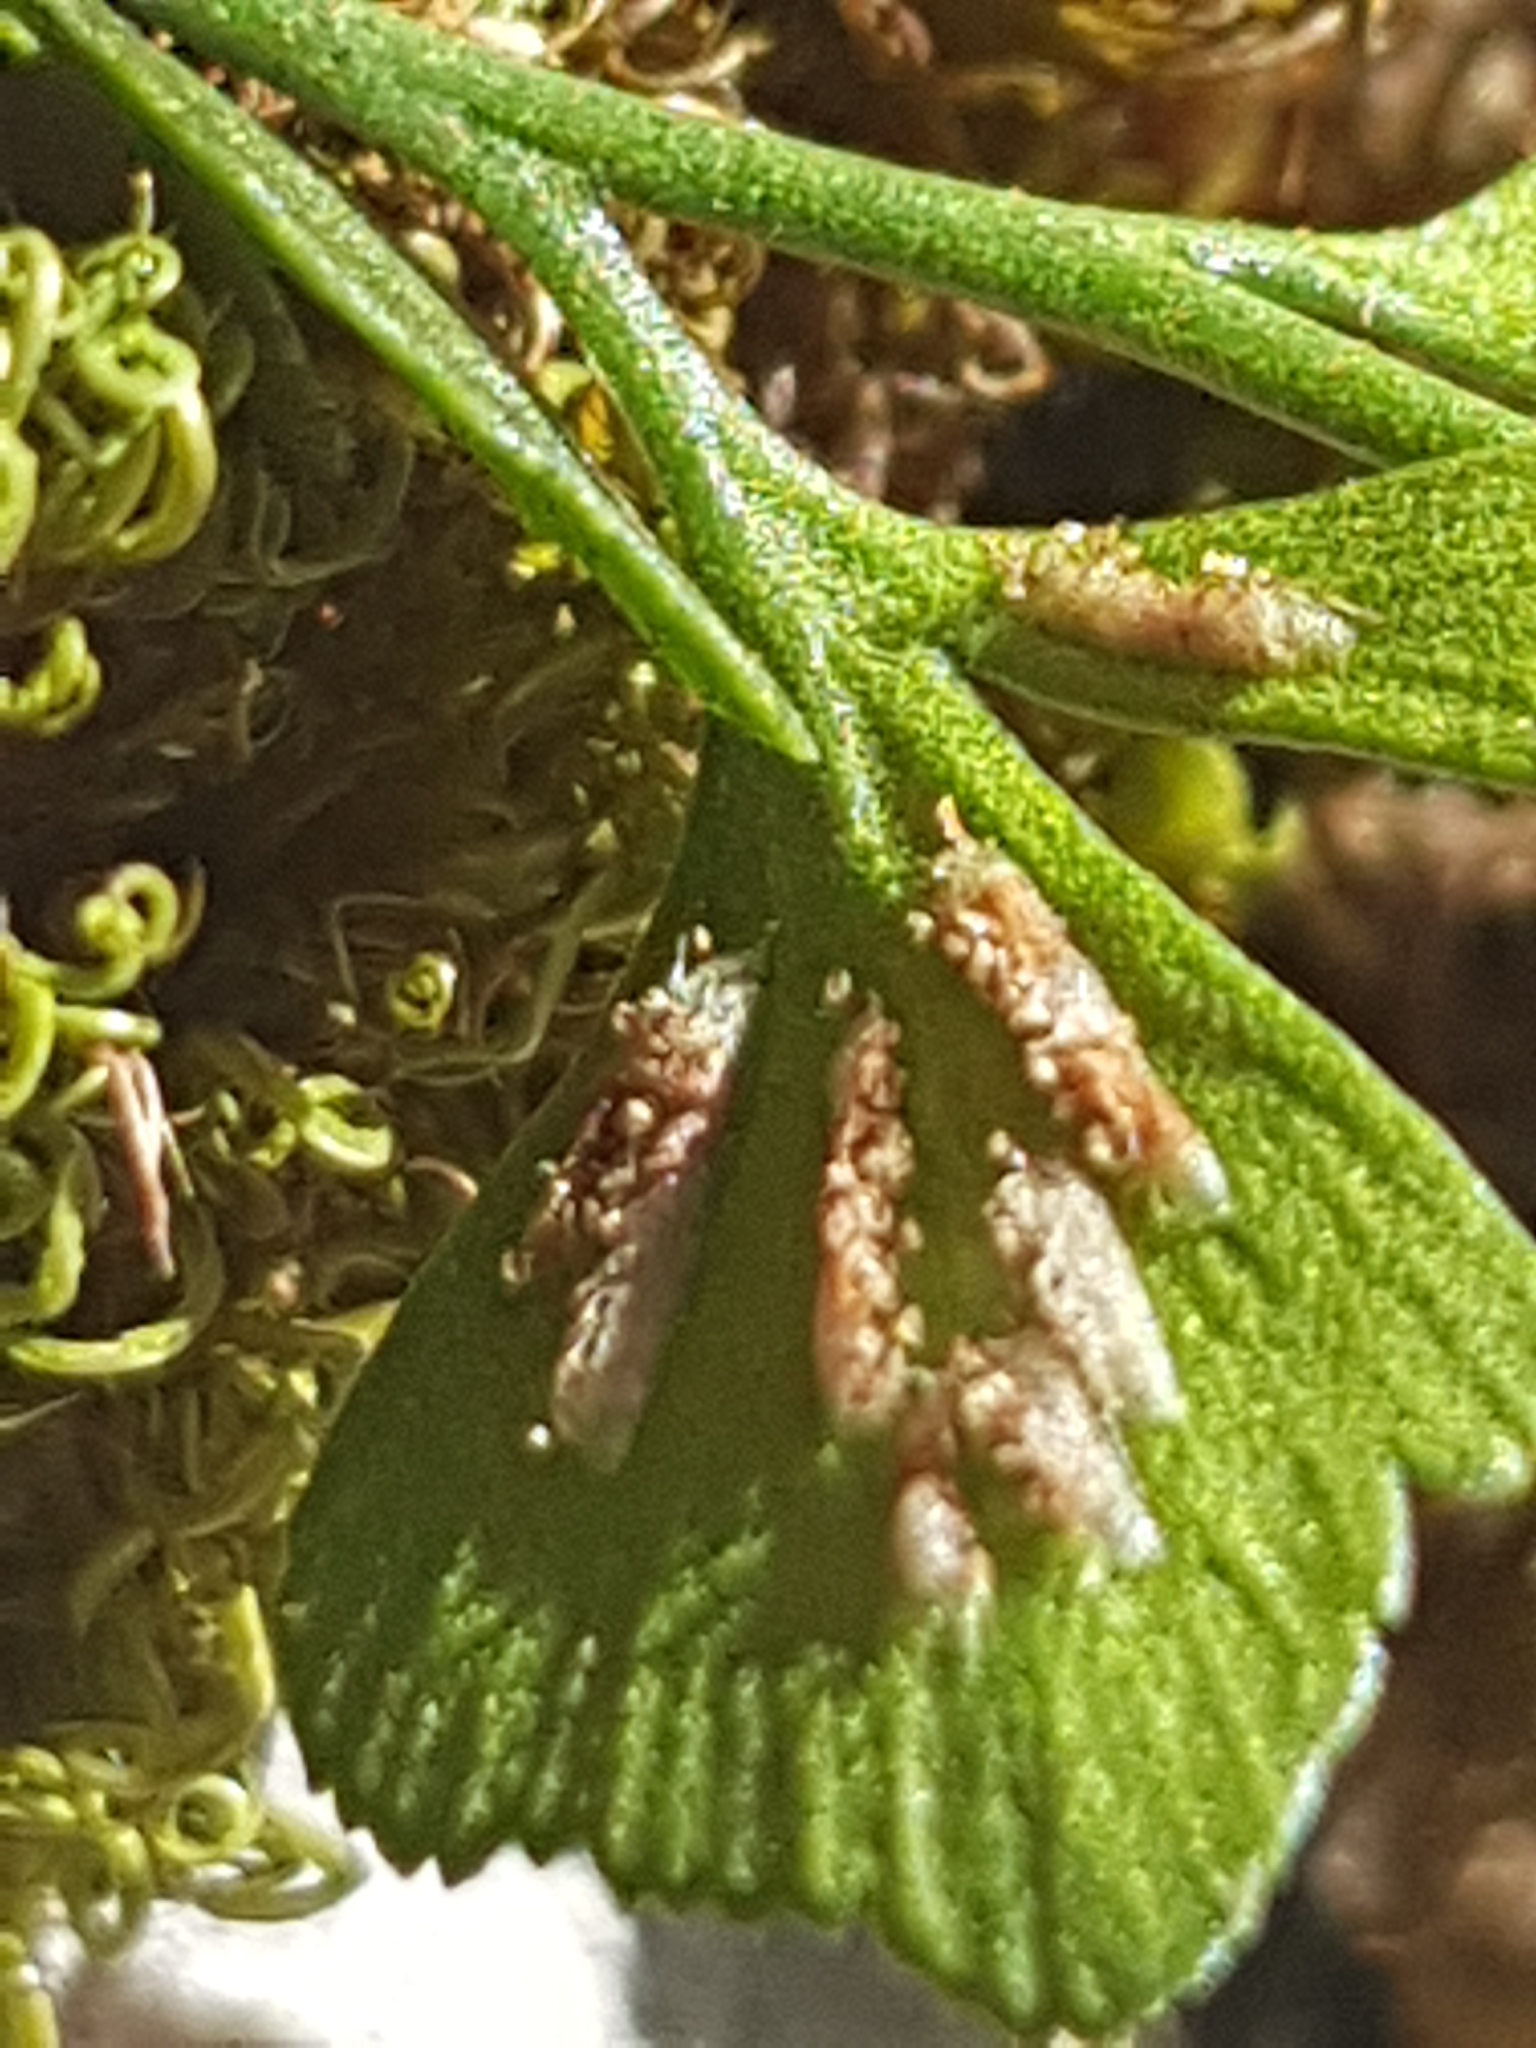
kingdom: Plantae
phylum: Tracheophyta
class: Polypodiopsida
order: Polypodiales
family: Aspleniaceae
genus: Asplenium
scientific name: Asplenium ruta-muraria
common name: Wall-rue
